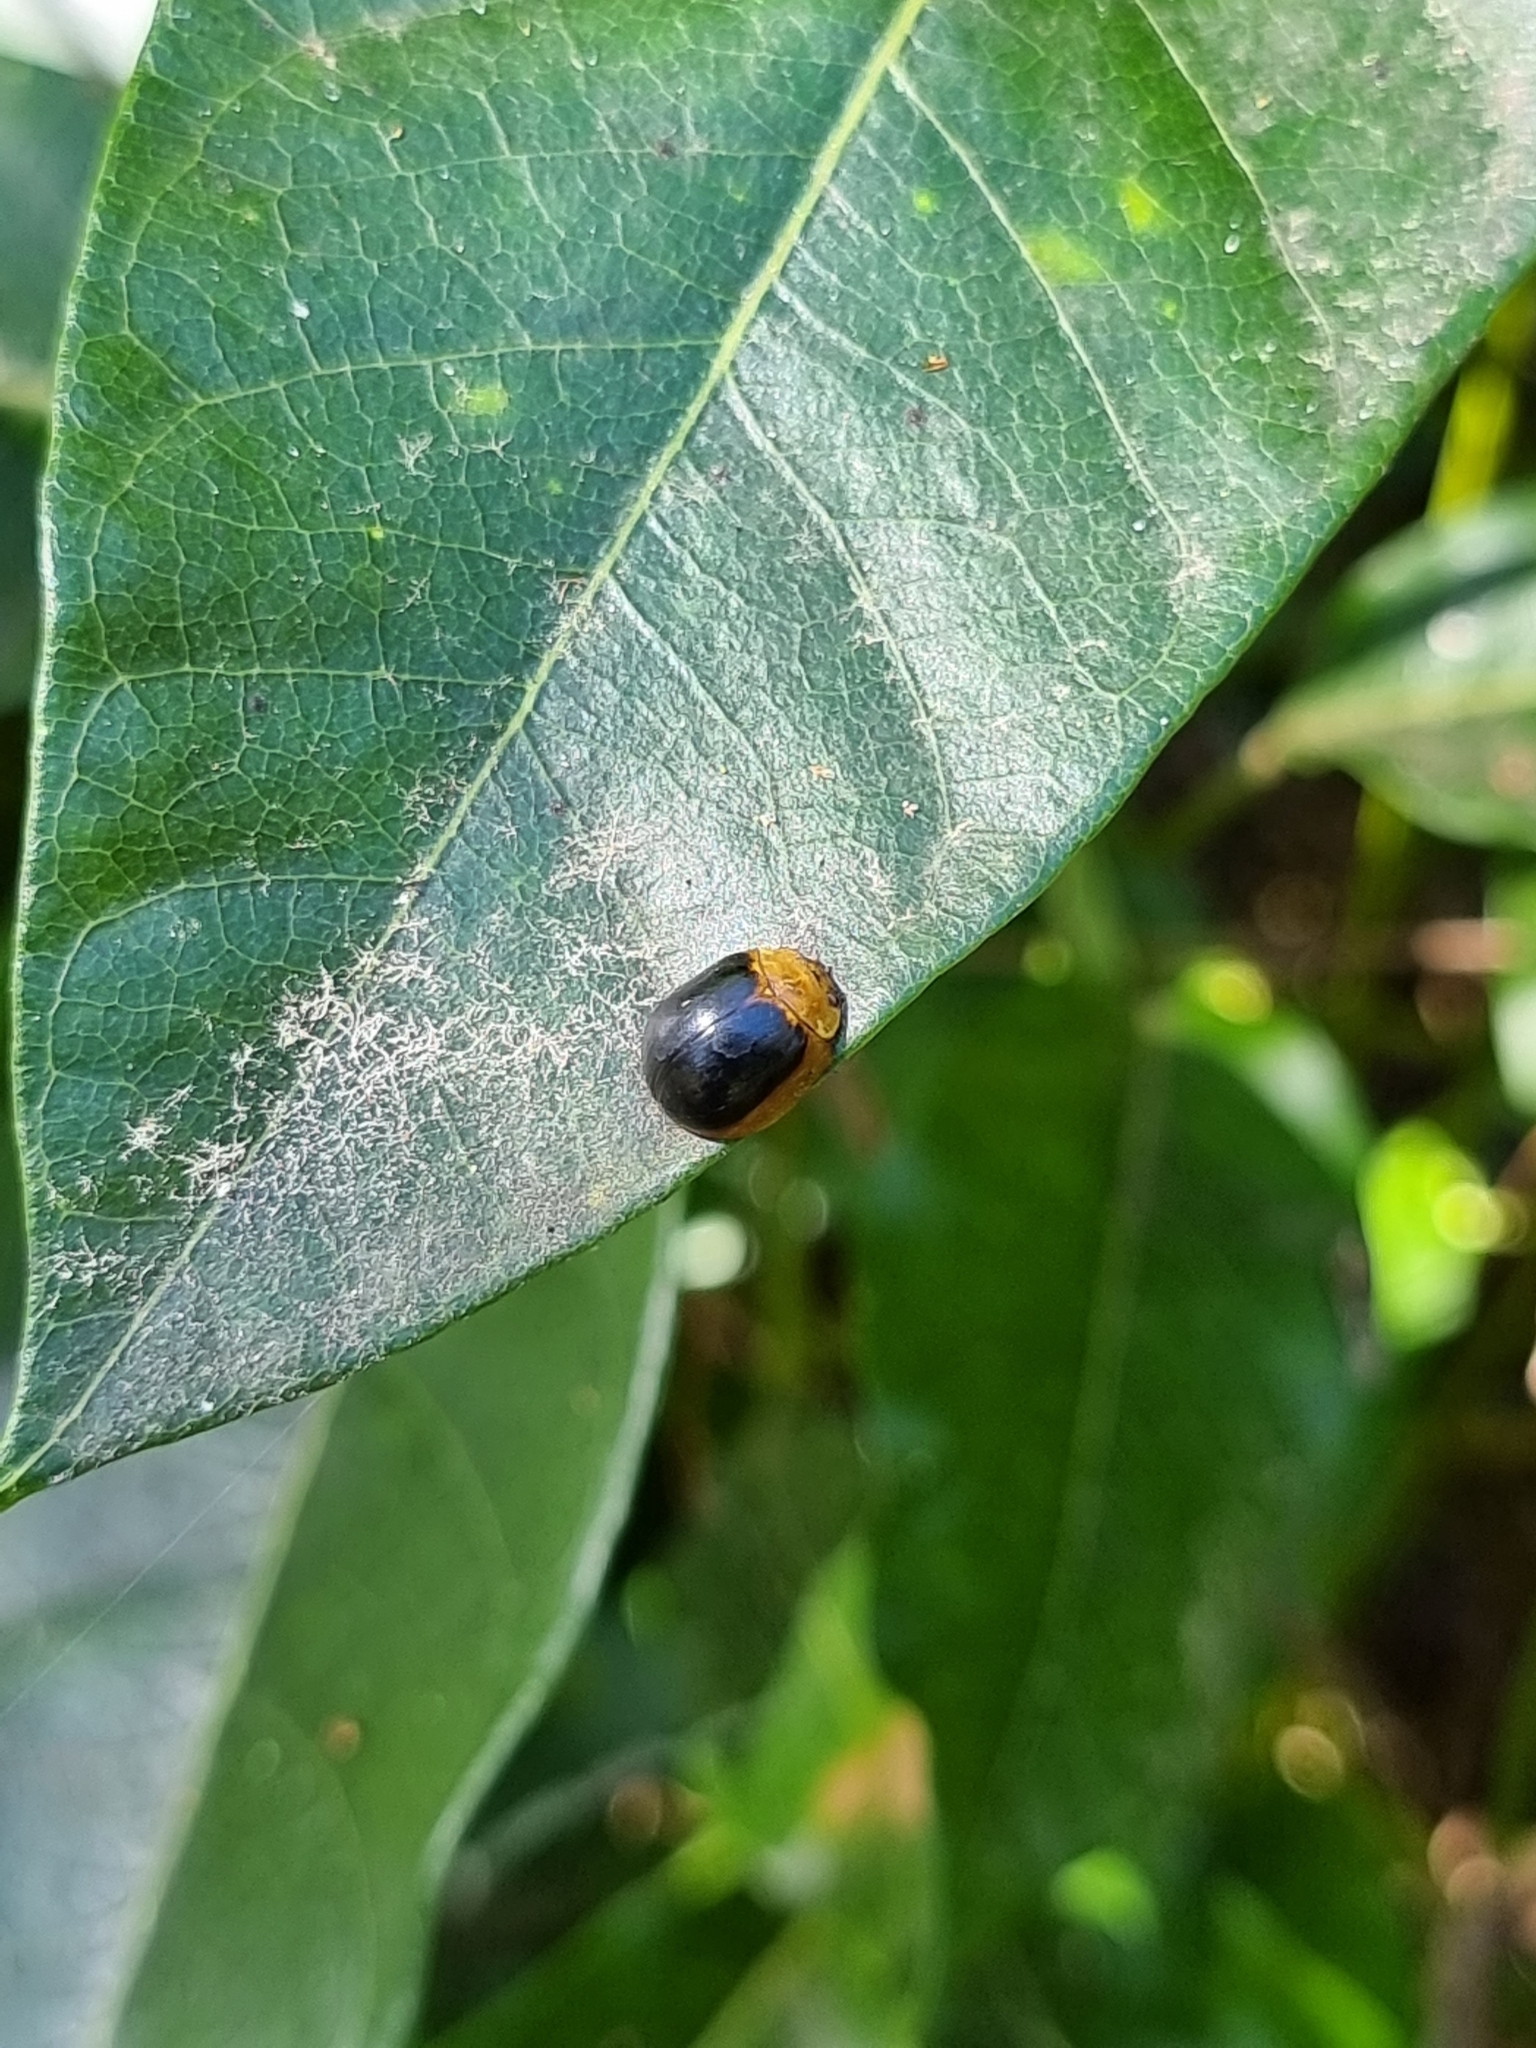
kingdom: Animalia
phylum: Arthropoda
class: Insecta
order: Coleoptera
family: Chrysomelidae
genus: Paropsisterna
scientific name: Paropsisterna cloelia
